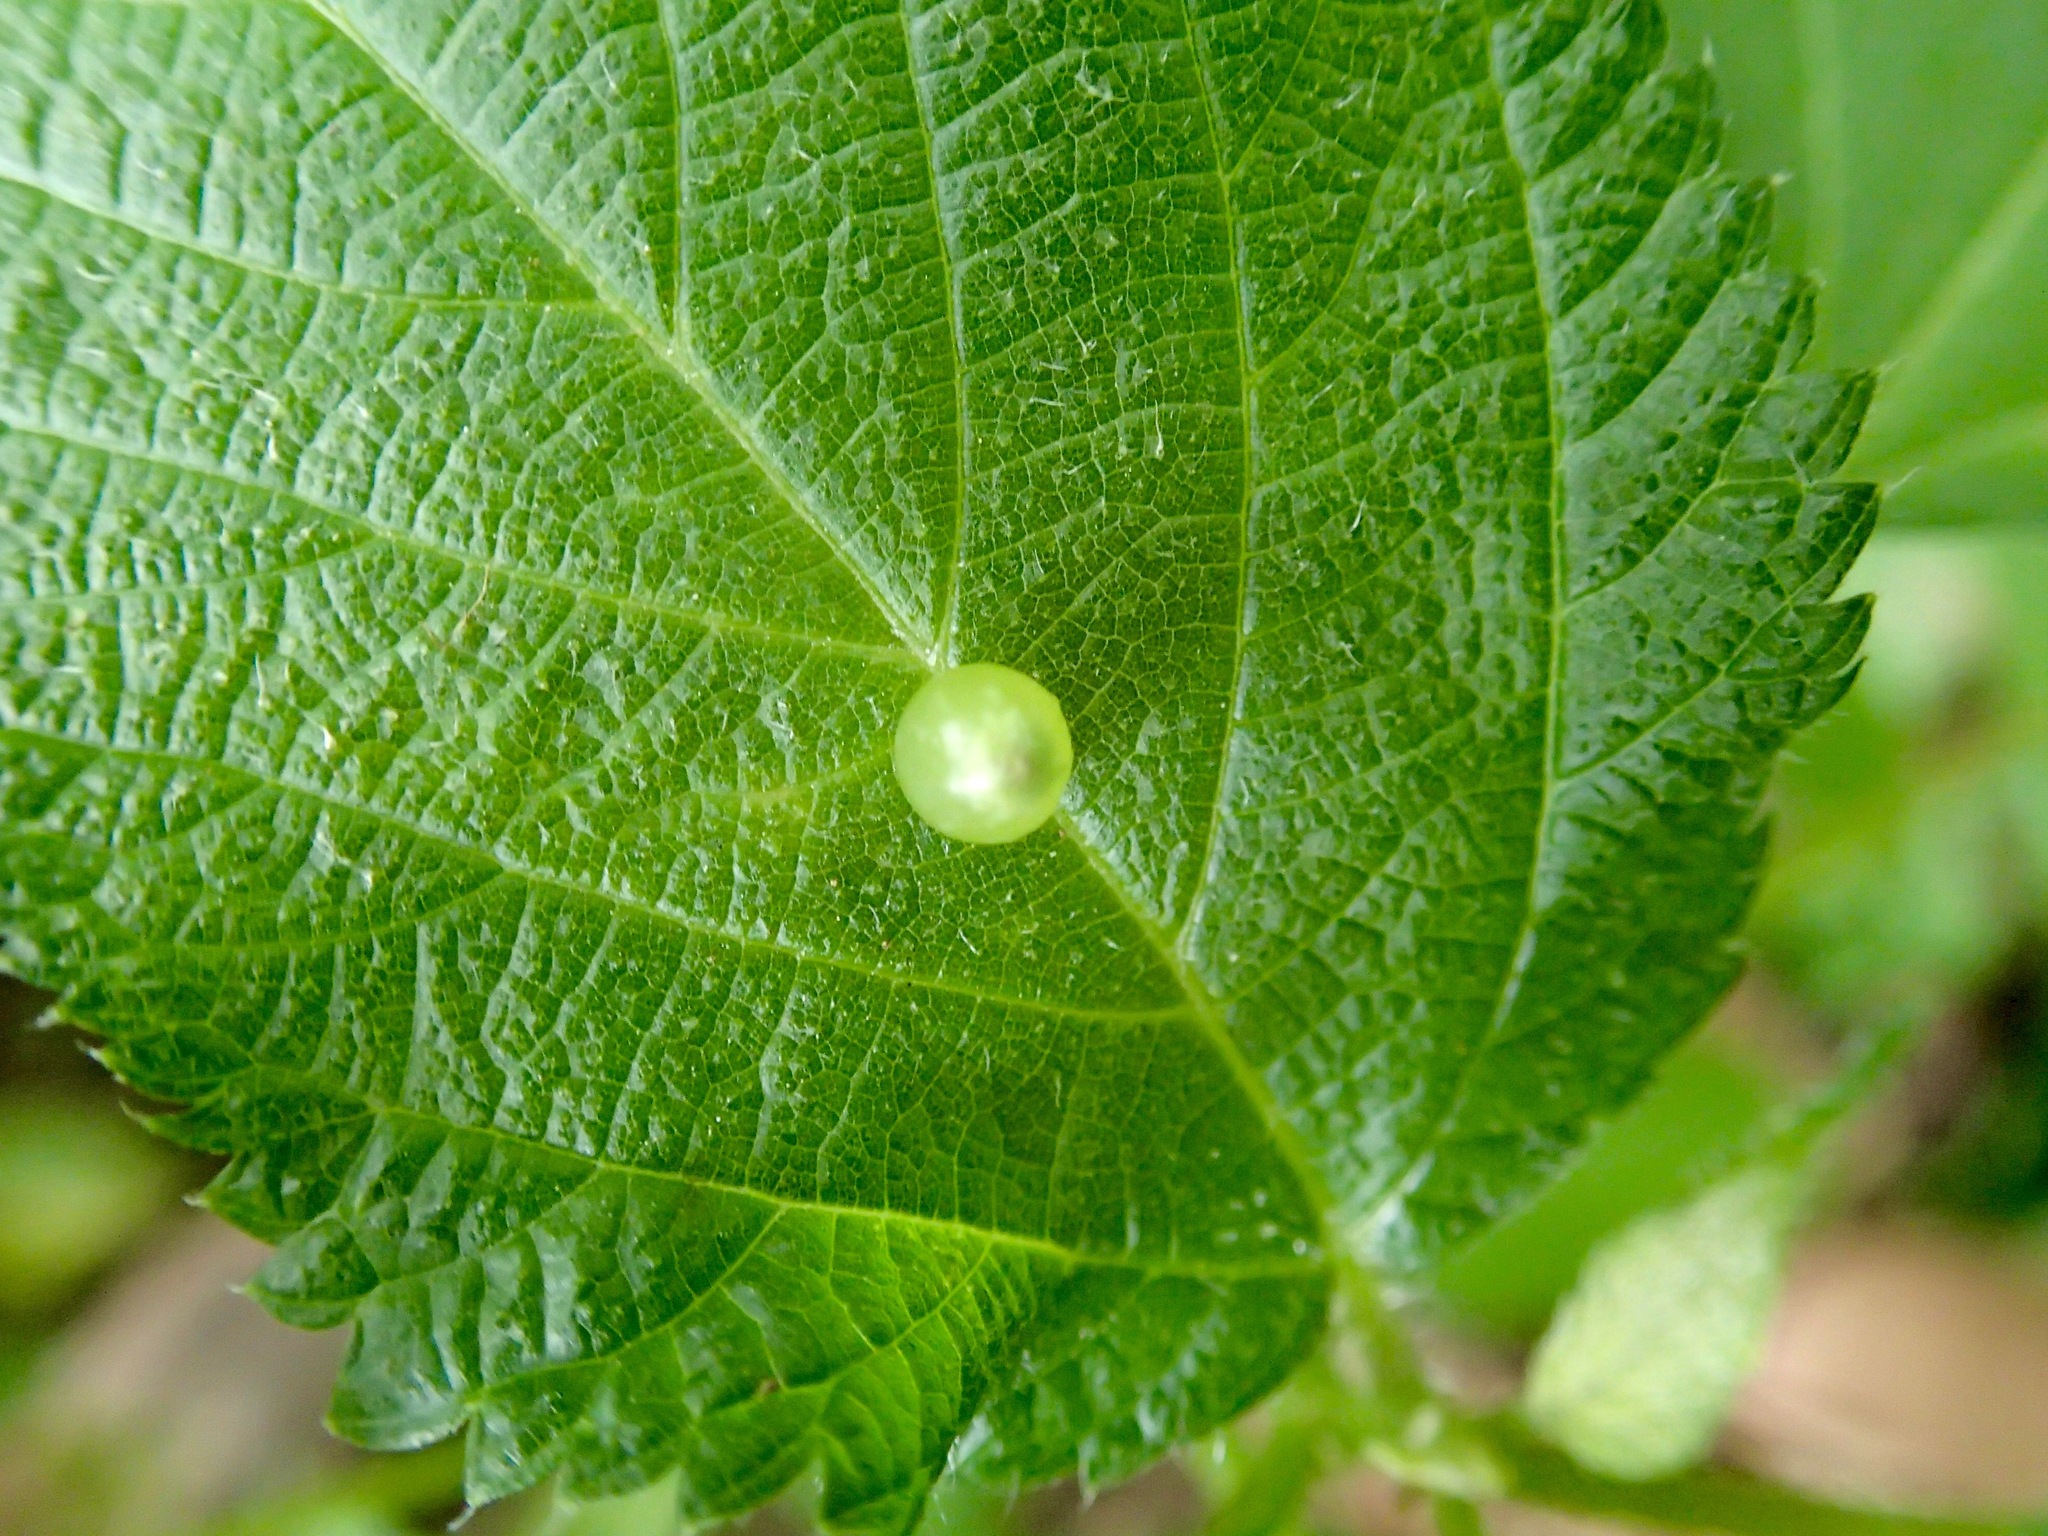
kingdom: Animalia
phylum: Arthropoda
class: Insecta
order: Diptera
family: Cecidomyiidae
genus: Dasineura
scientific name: Dasineura investita
